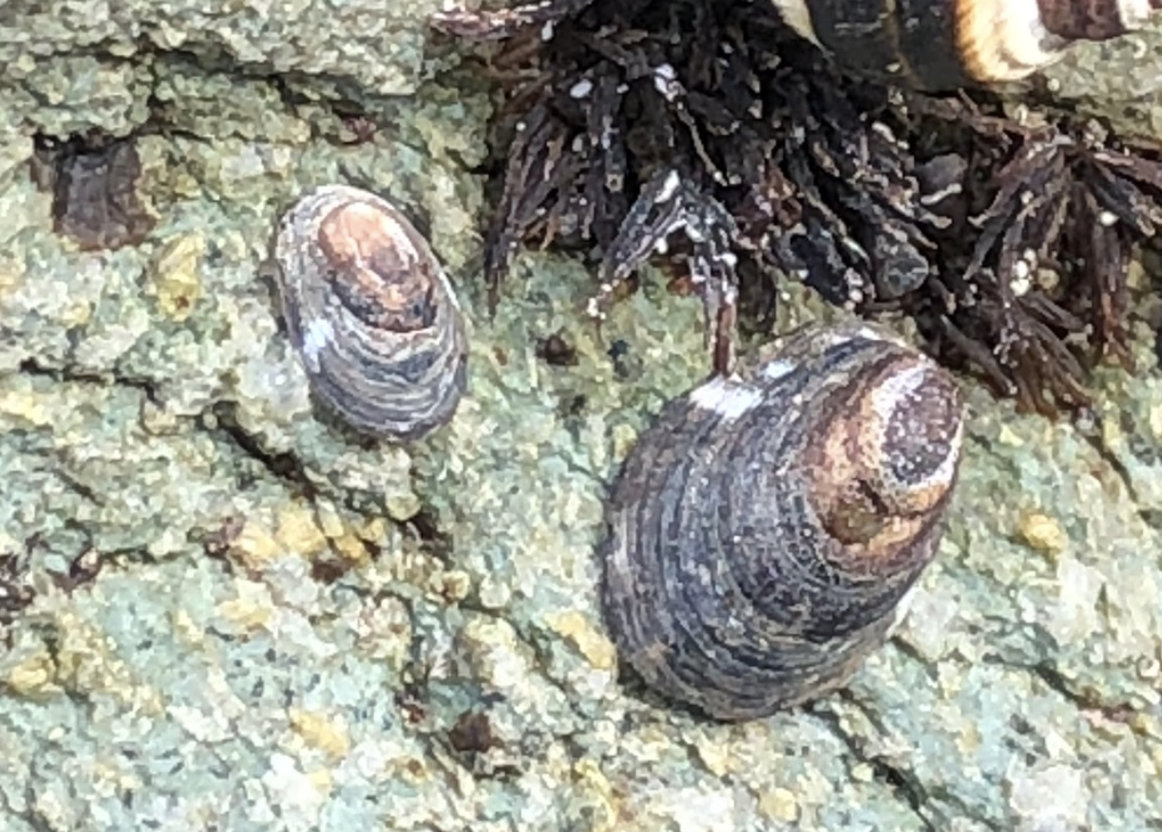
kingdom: Animalia
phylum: Mollusca
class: Gastropoda
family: Lottiidae
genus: Lottia
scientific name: Lottia paradigitalis
